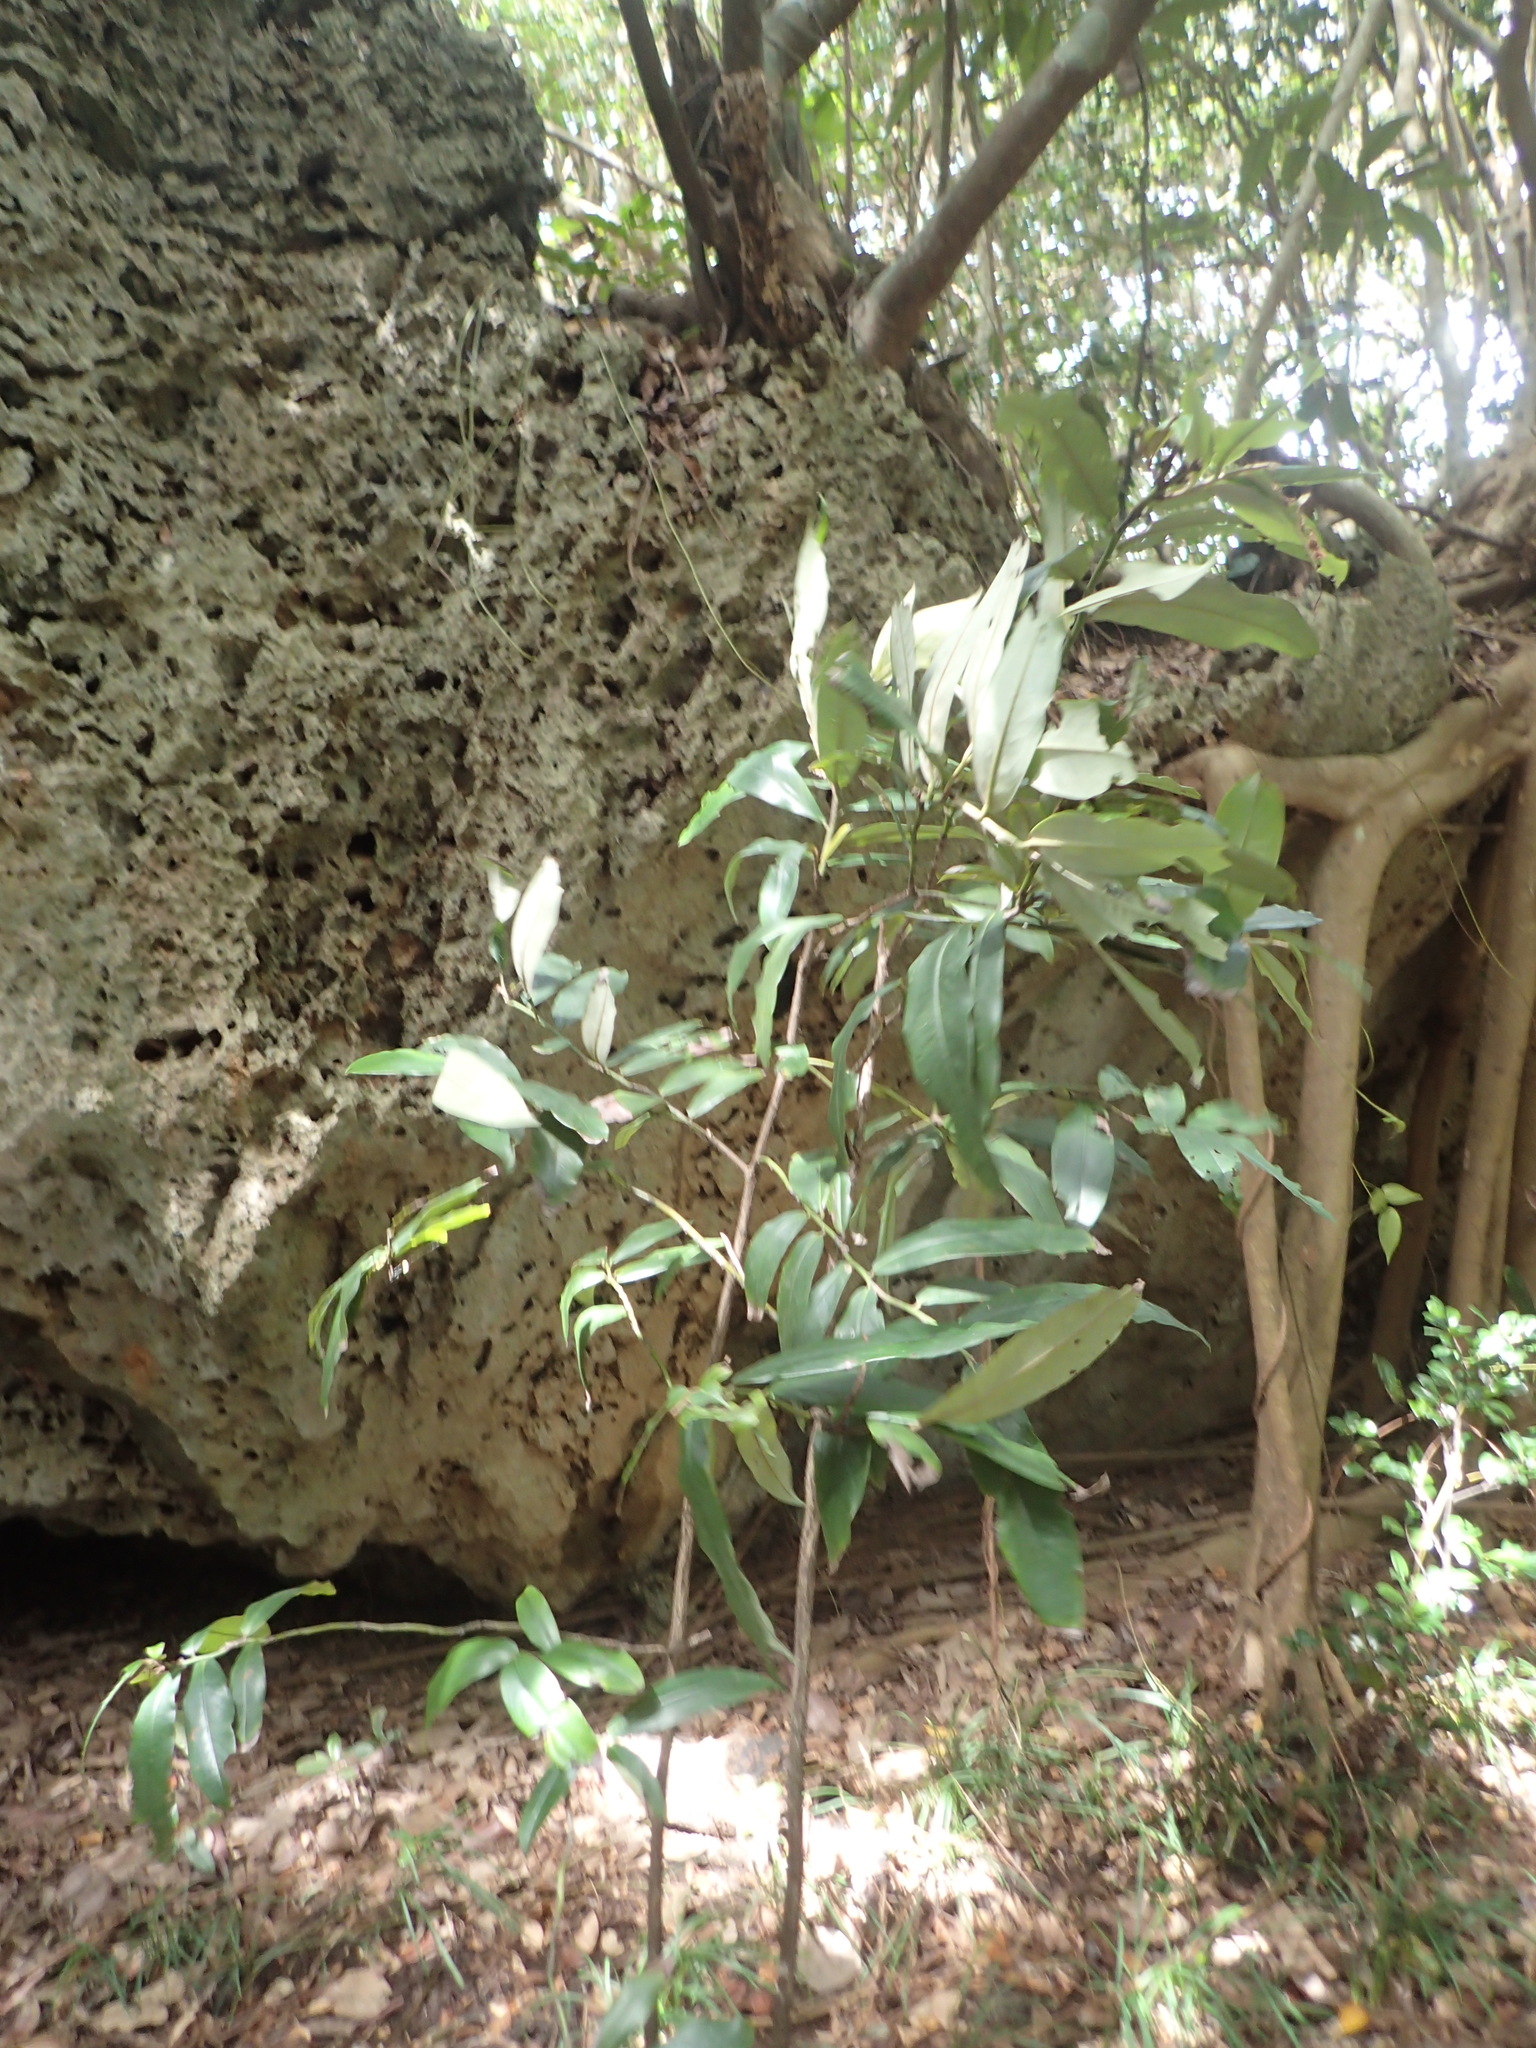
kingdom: Plantae
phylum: Tracheophyta
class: Magnoliopsida
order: Ericales
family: Ebenaceae
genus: Diospyros
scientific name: Diospyros blancoi
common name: Mabola-tree
